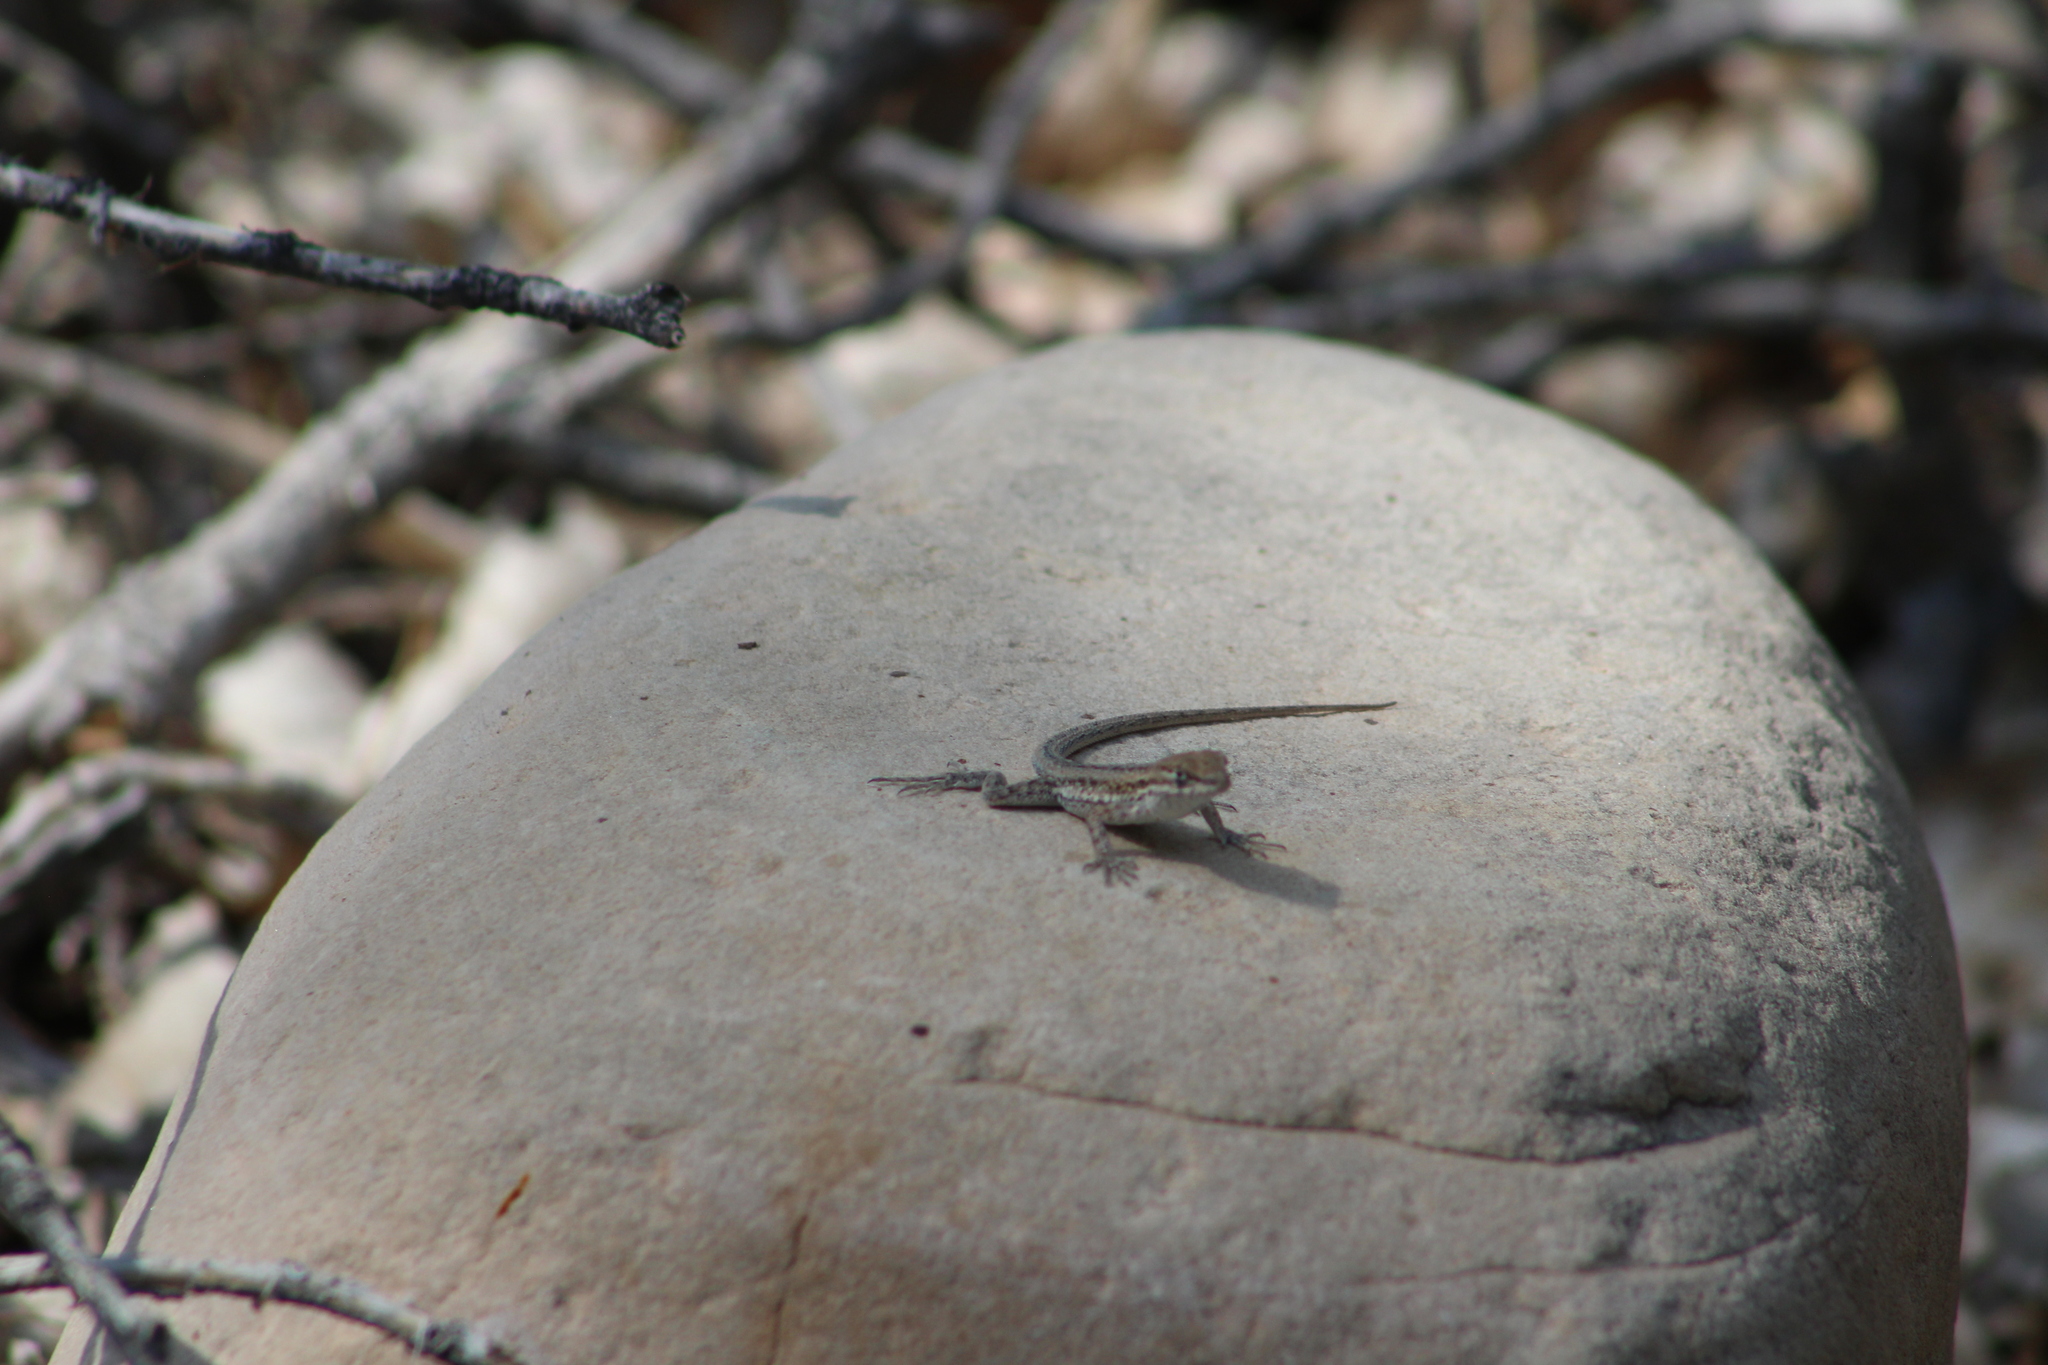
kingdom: Animalia
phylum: Chordata
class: Squamata
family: Phrynosomatidae
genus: Uta
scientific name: Uta stansburiana
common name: Side-blotched lizard
